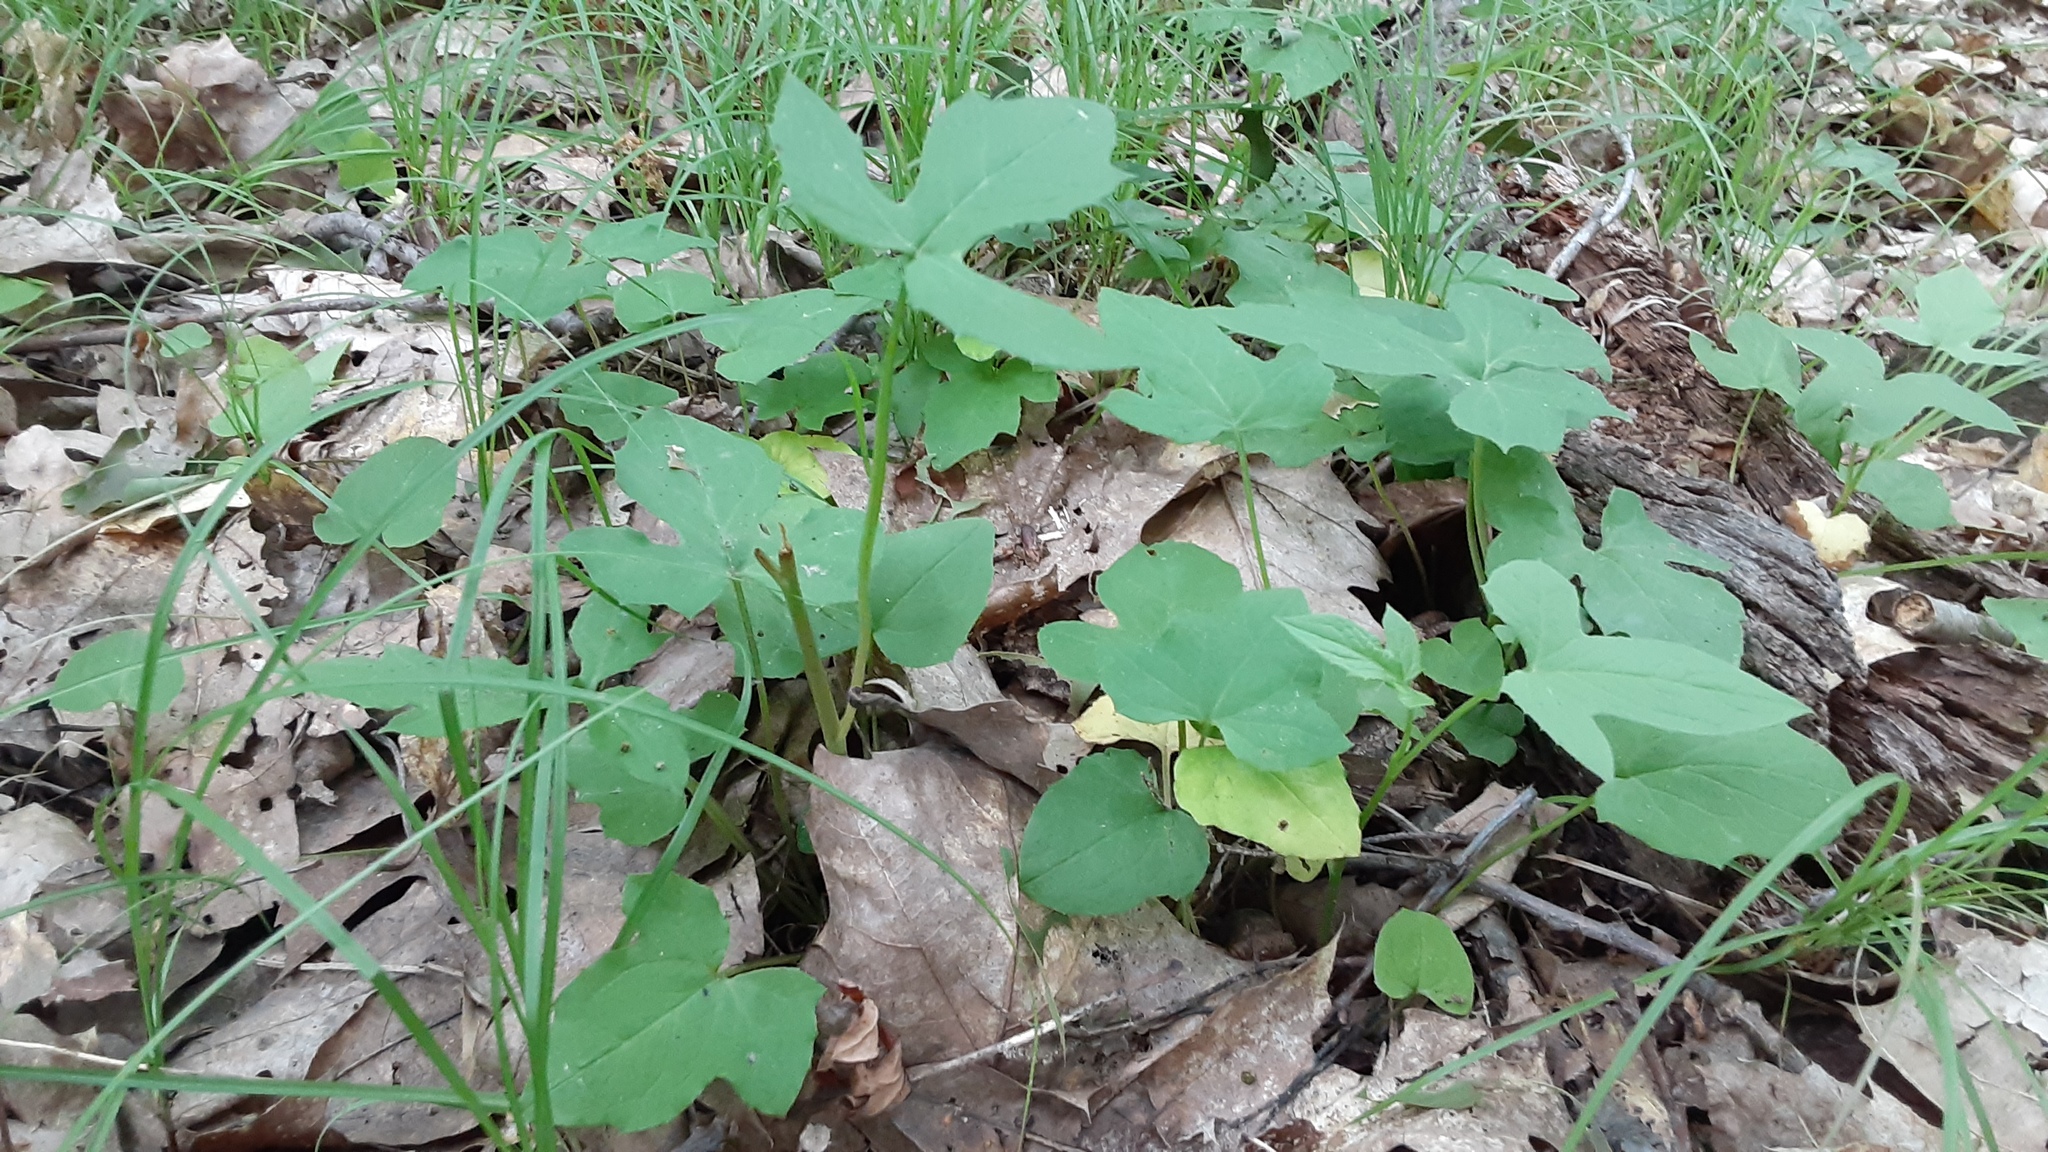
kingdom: Plantae
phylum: Tracheophyta
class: Magnoliopsida
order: Asterales
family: Asteraceae
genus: Nabalus
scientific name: Nabalus trifoliolatus
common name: Gall-of-the-earth
